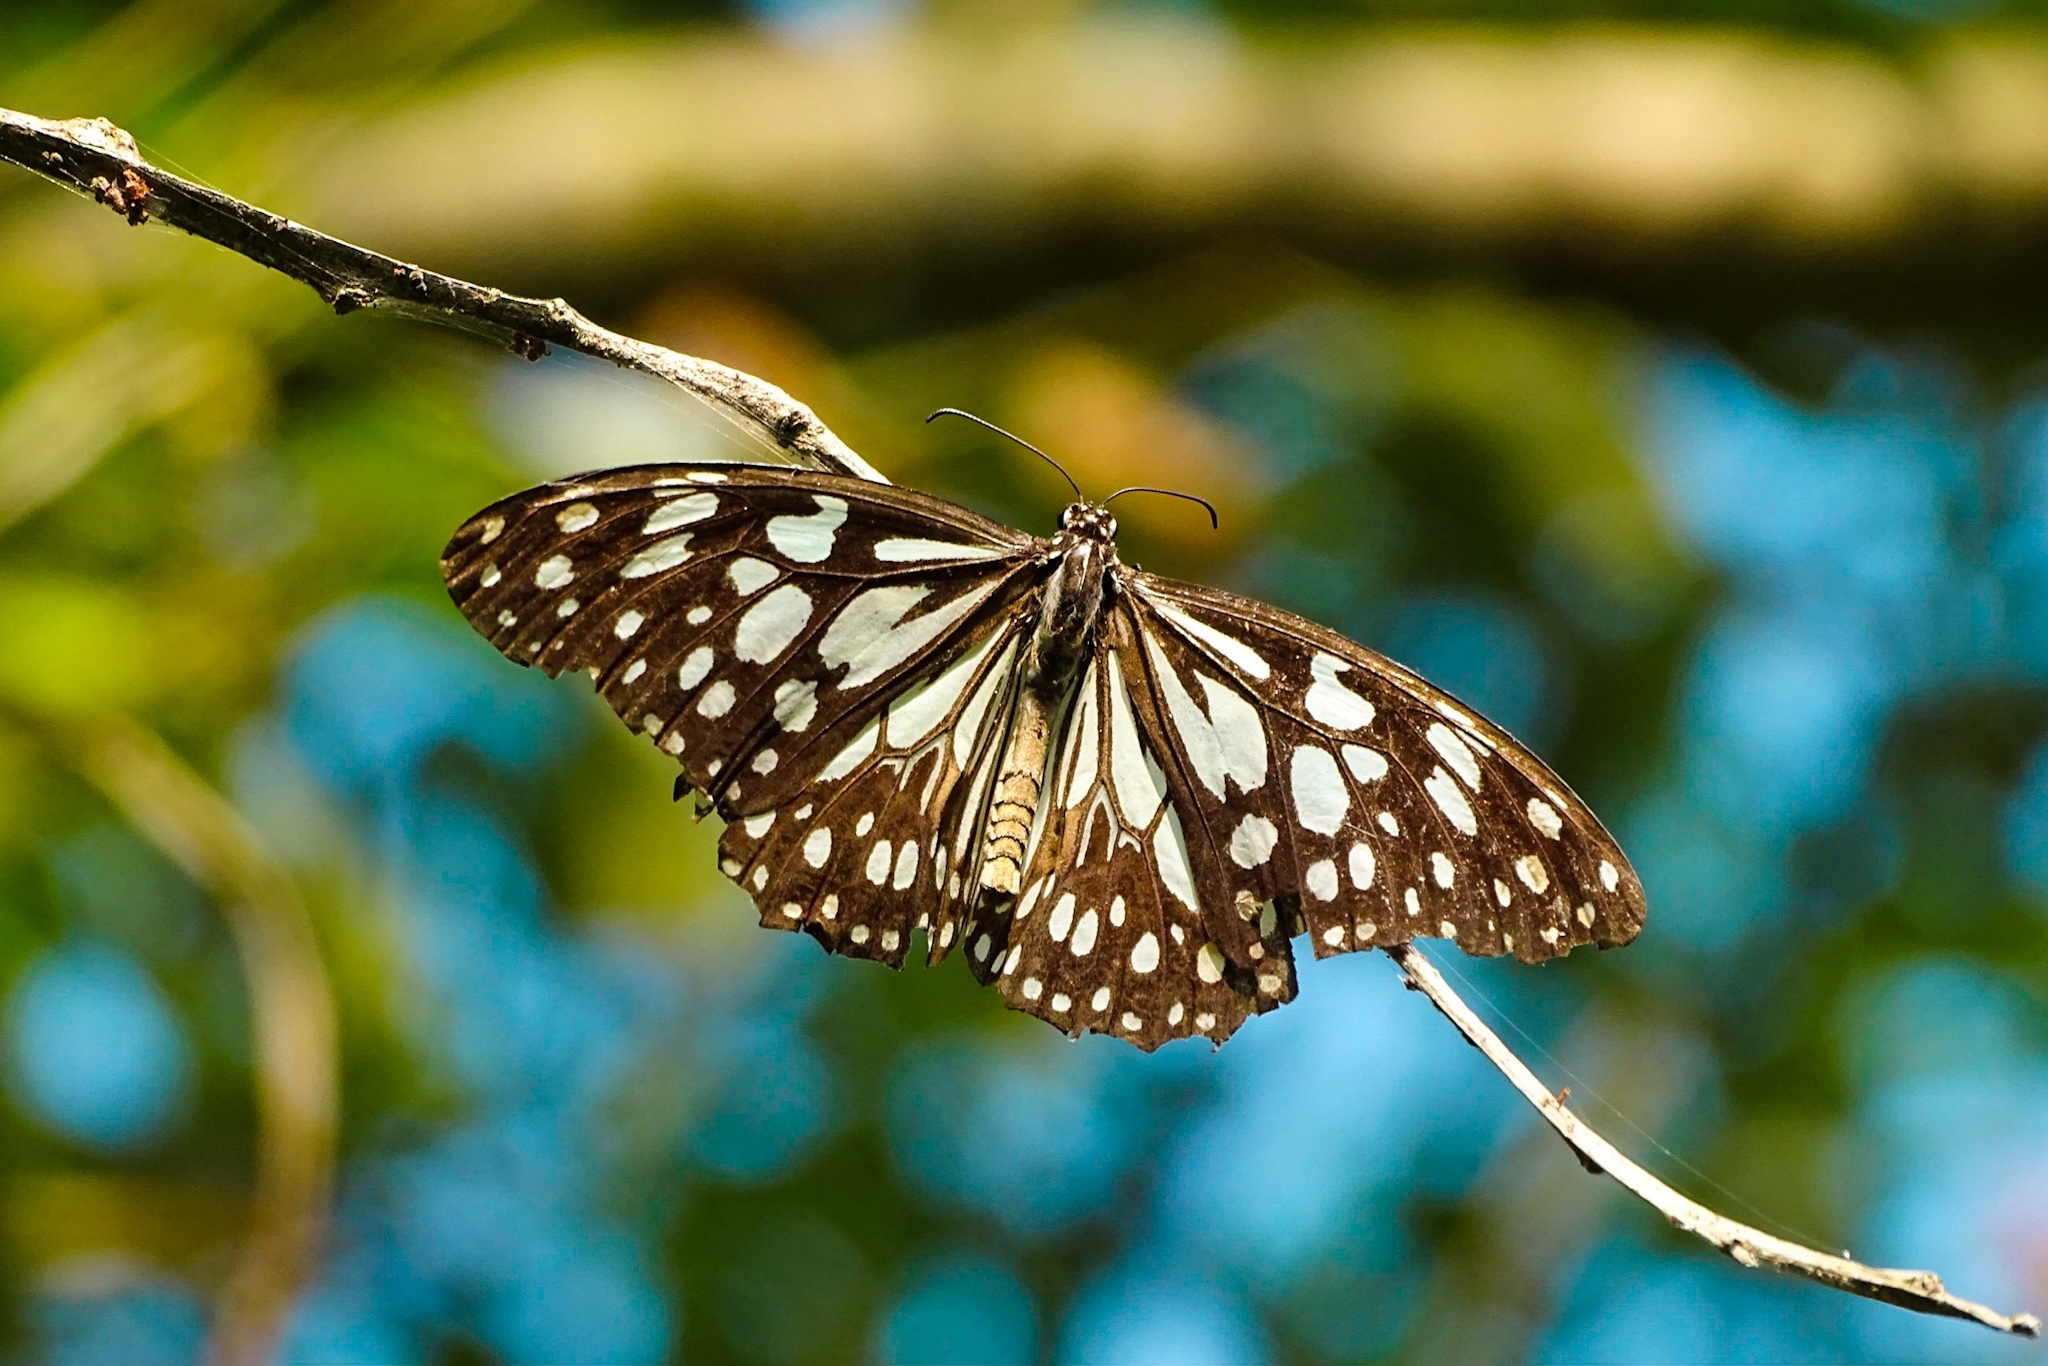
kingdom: Animalia
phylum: Arthropoda
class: Insecta
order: Lepidoptera
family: Nymphalidae
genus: Tirumala
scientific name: Tirumala limniace
